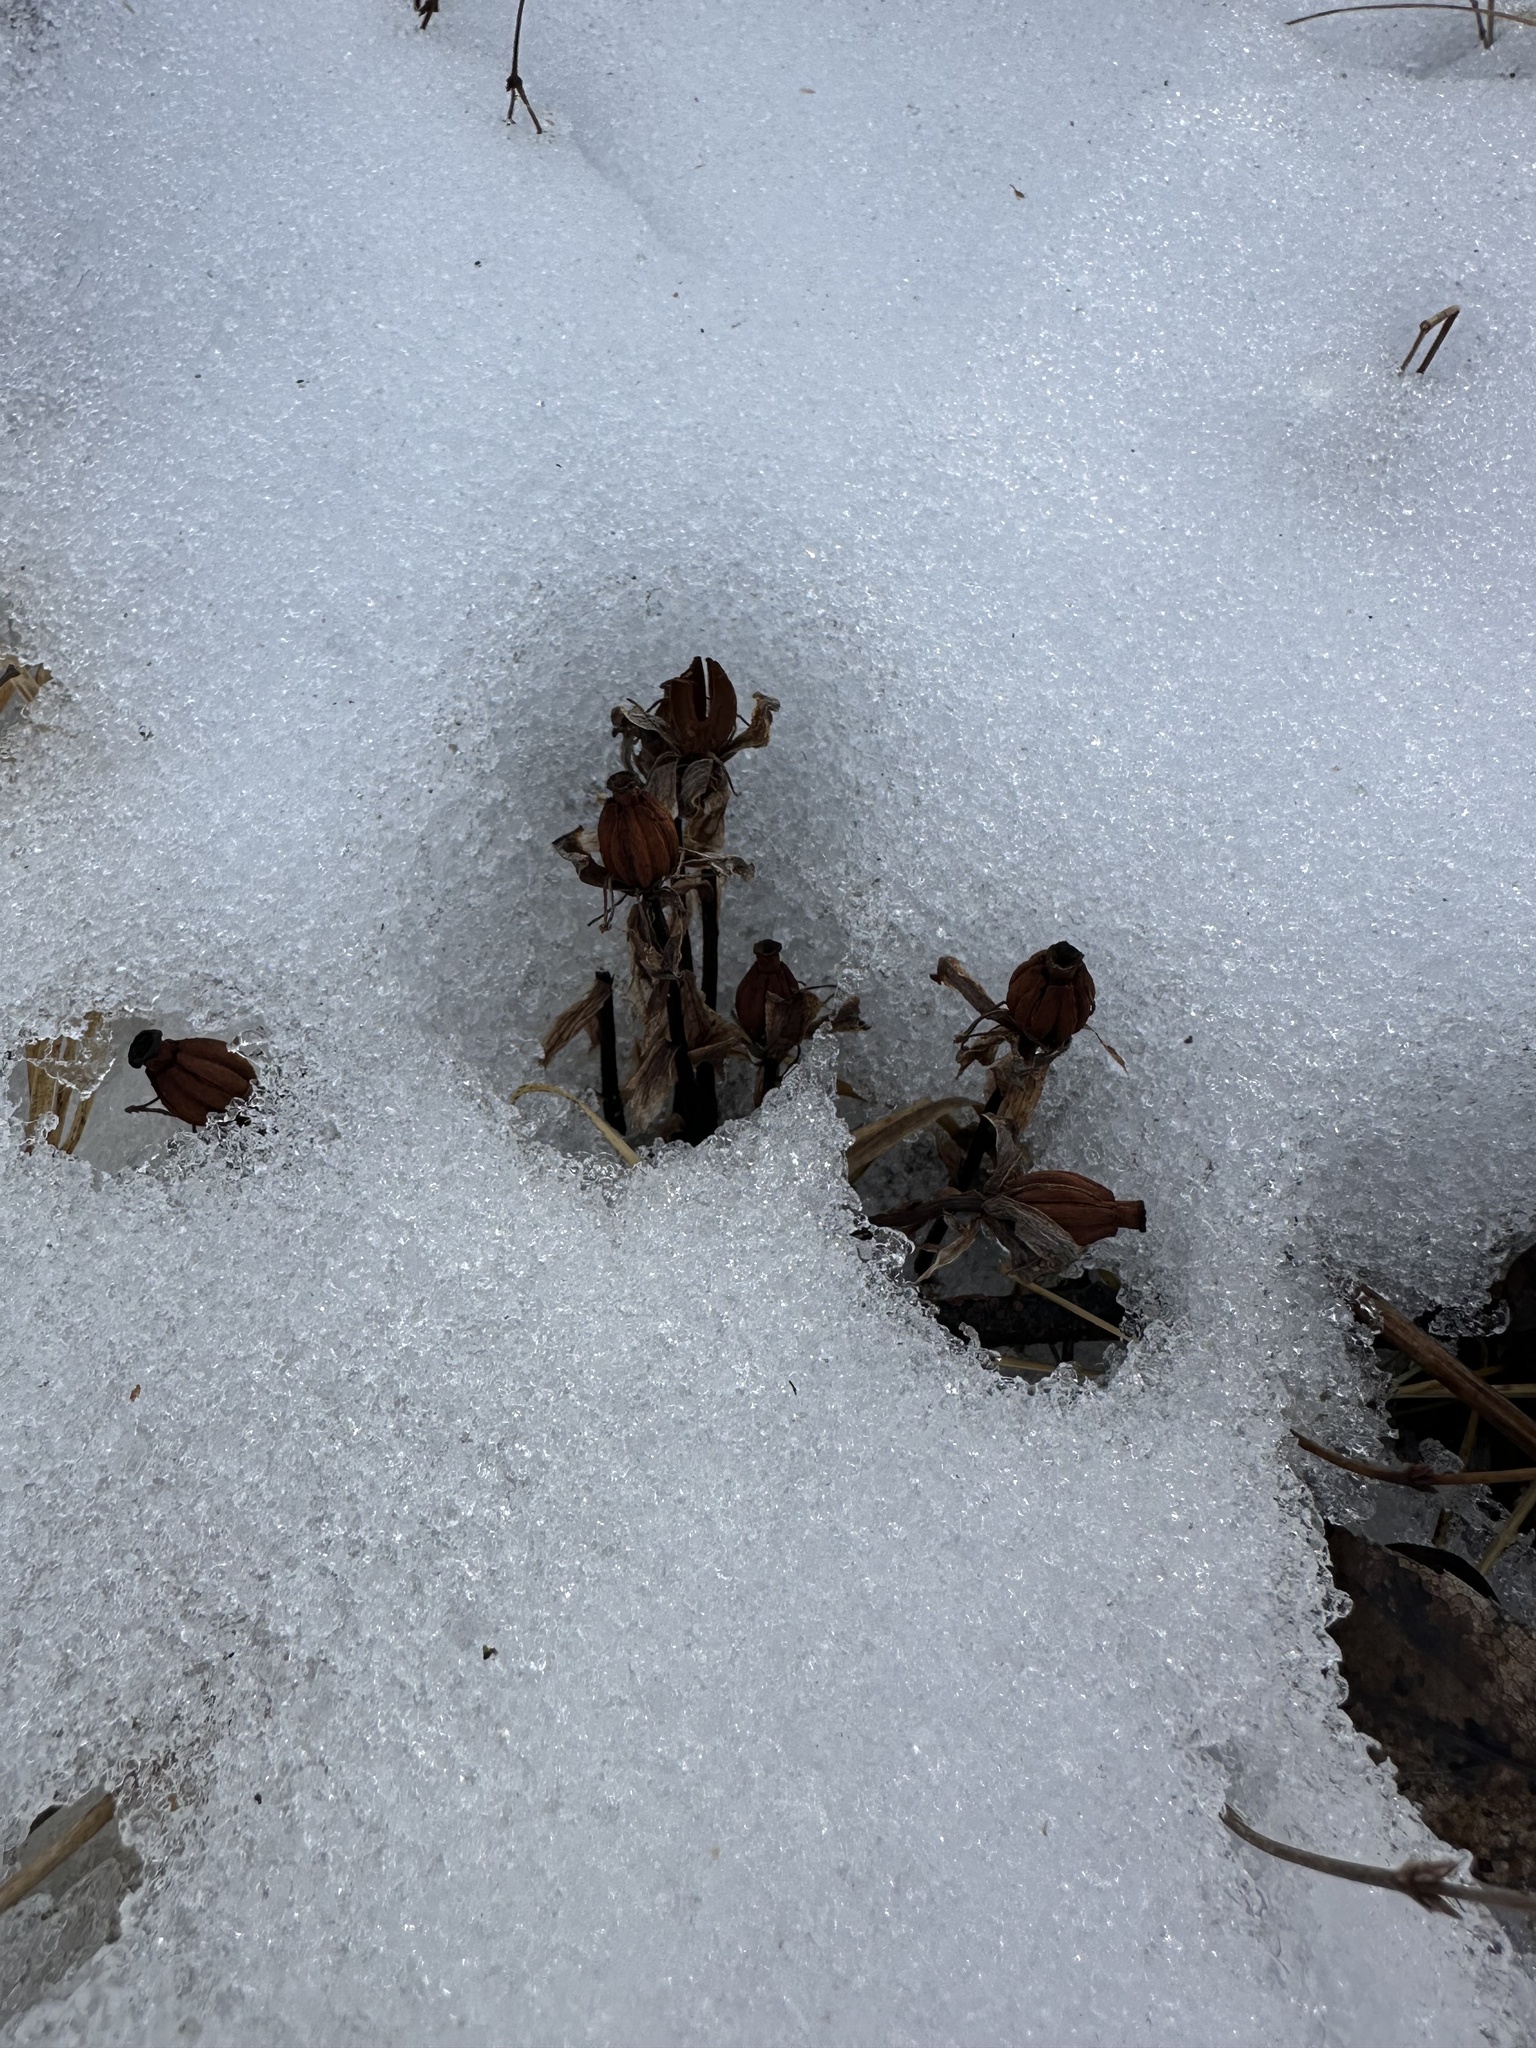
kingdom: Plantae
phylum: Tracheophyta
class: Magnoliopsida
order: Ericales
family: Ericaceae
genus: Monotropa
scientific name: Monotropa uniflora
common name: Convulsion root
